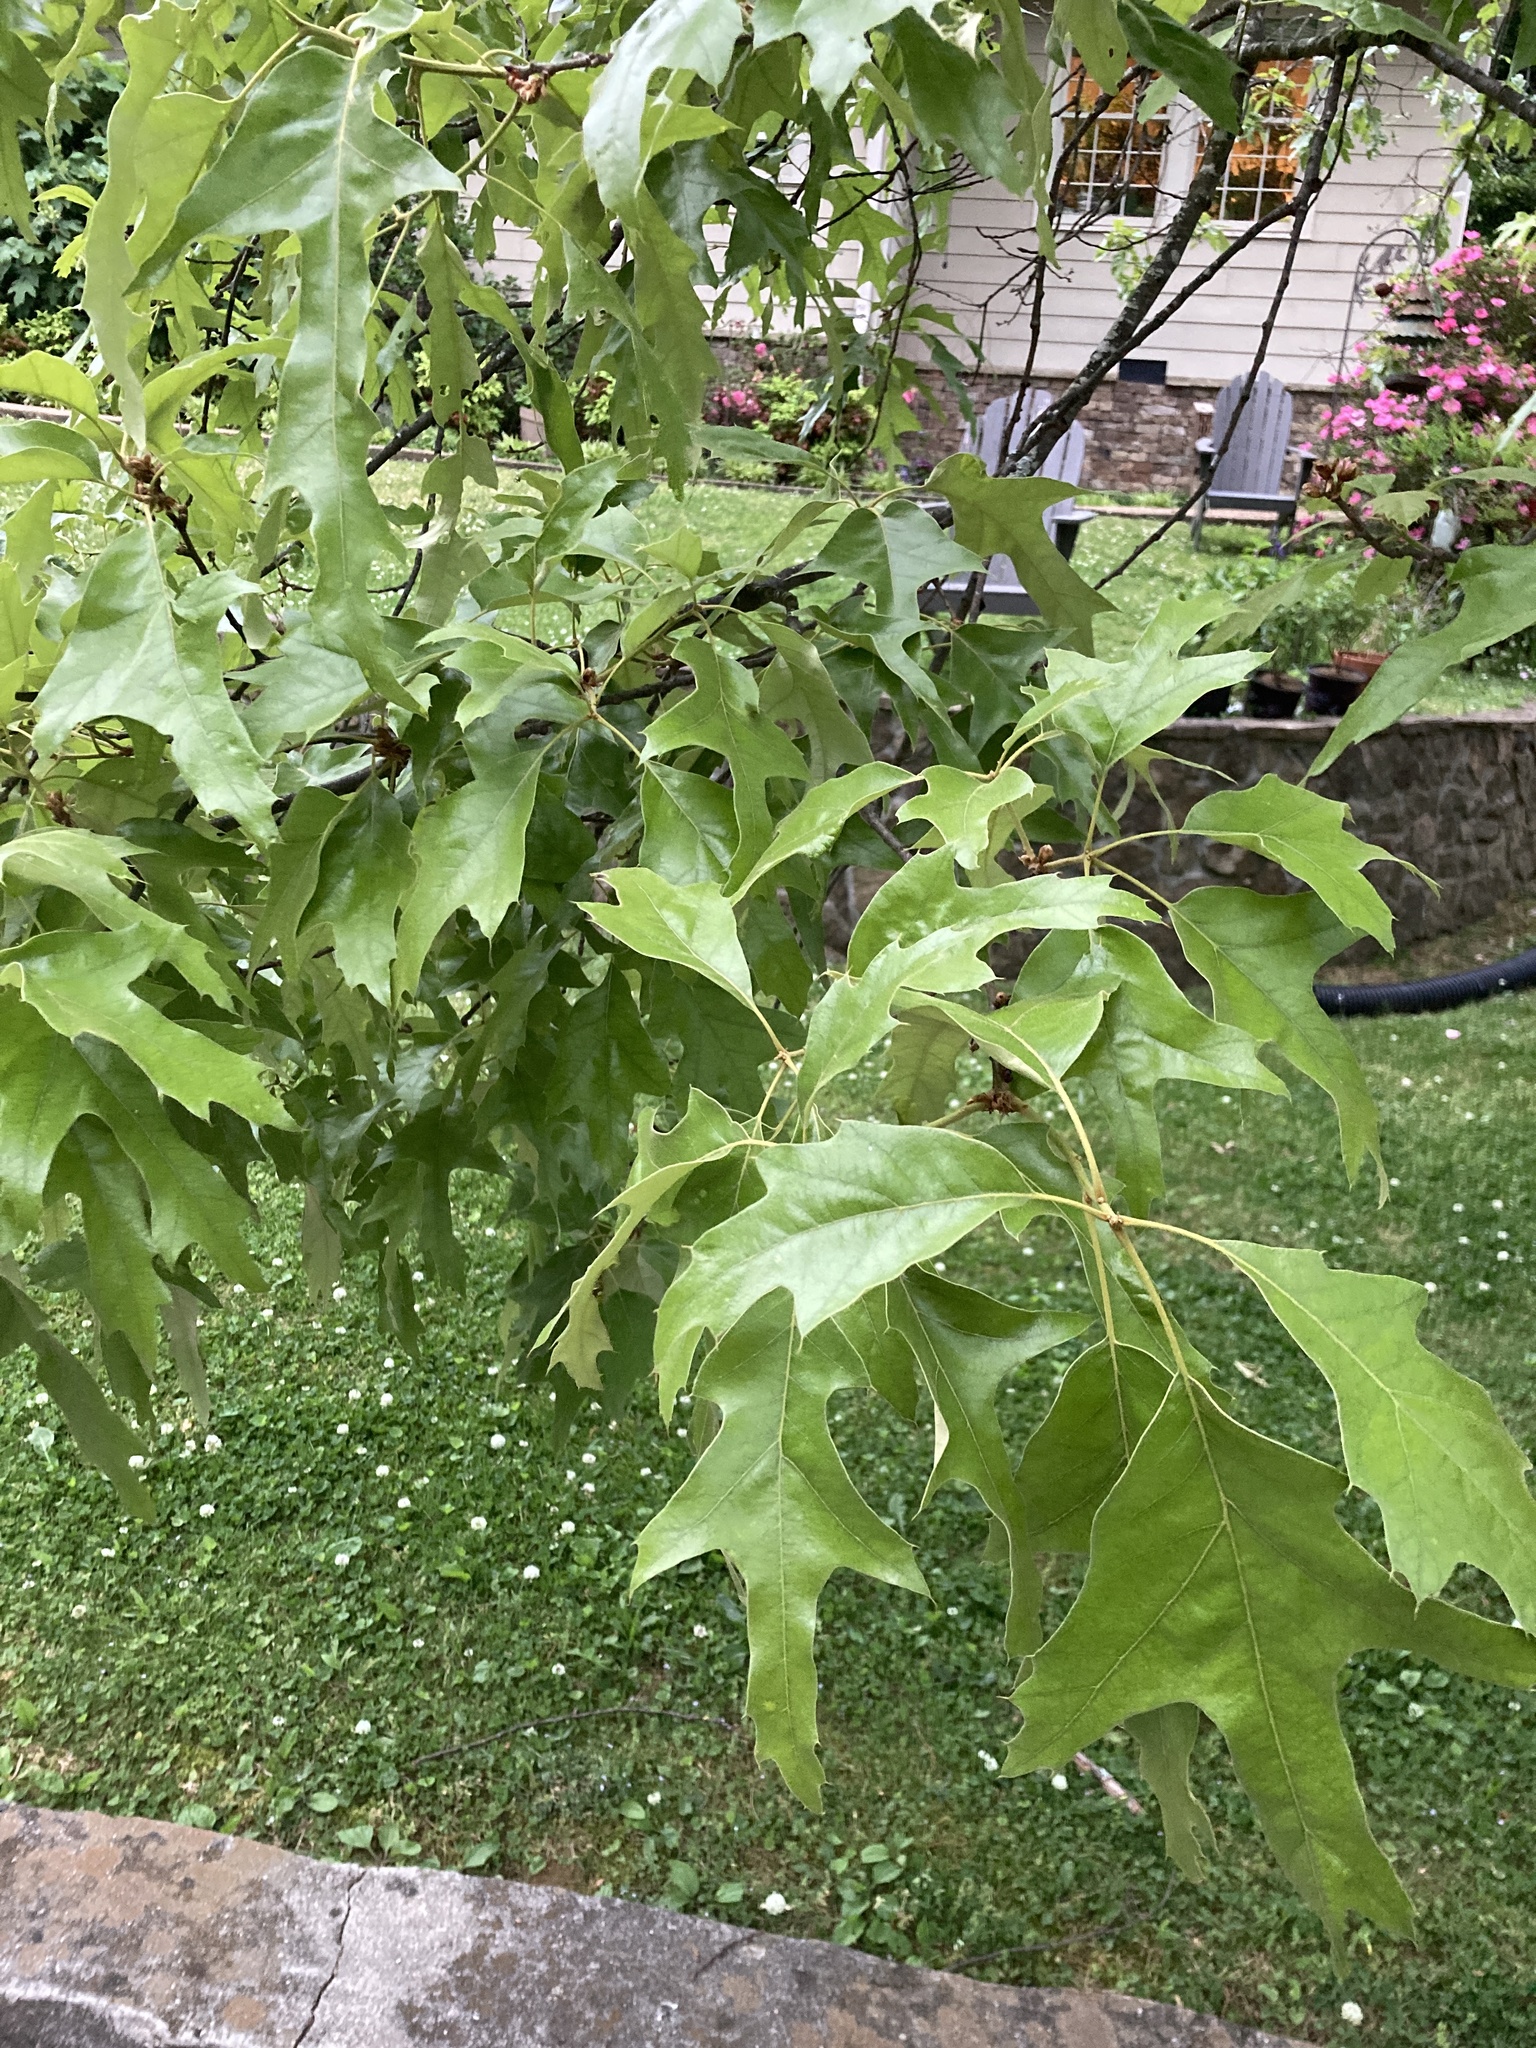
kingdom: Plantae
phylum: Tracheophyta
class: Magnoliopsida
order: Fagales
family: Fagaceae
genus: Quercus
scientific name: Quercus falcata
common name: Southern red oak
